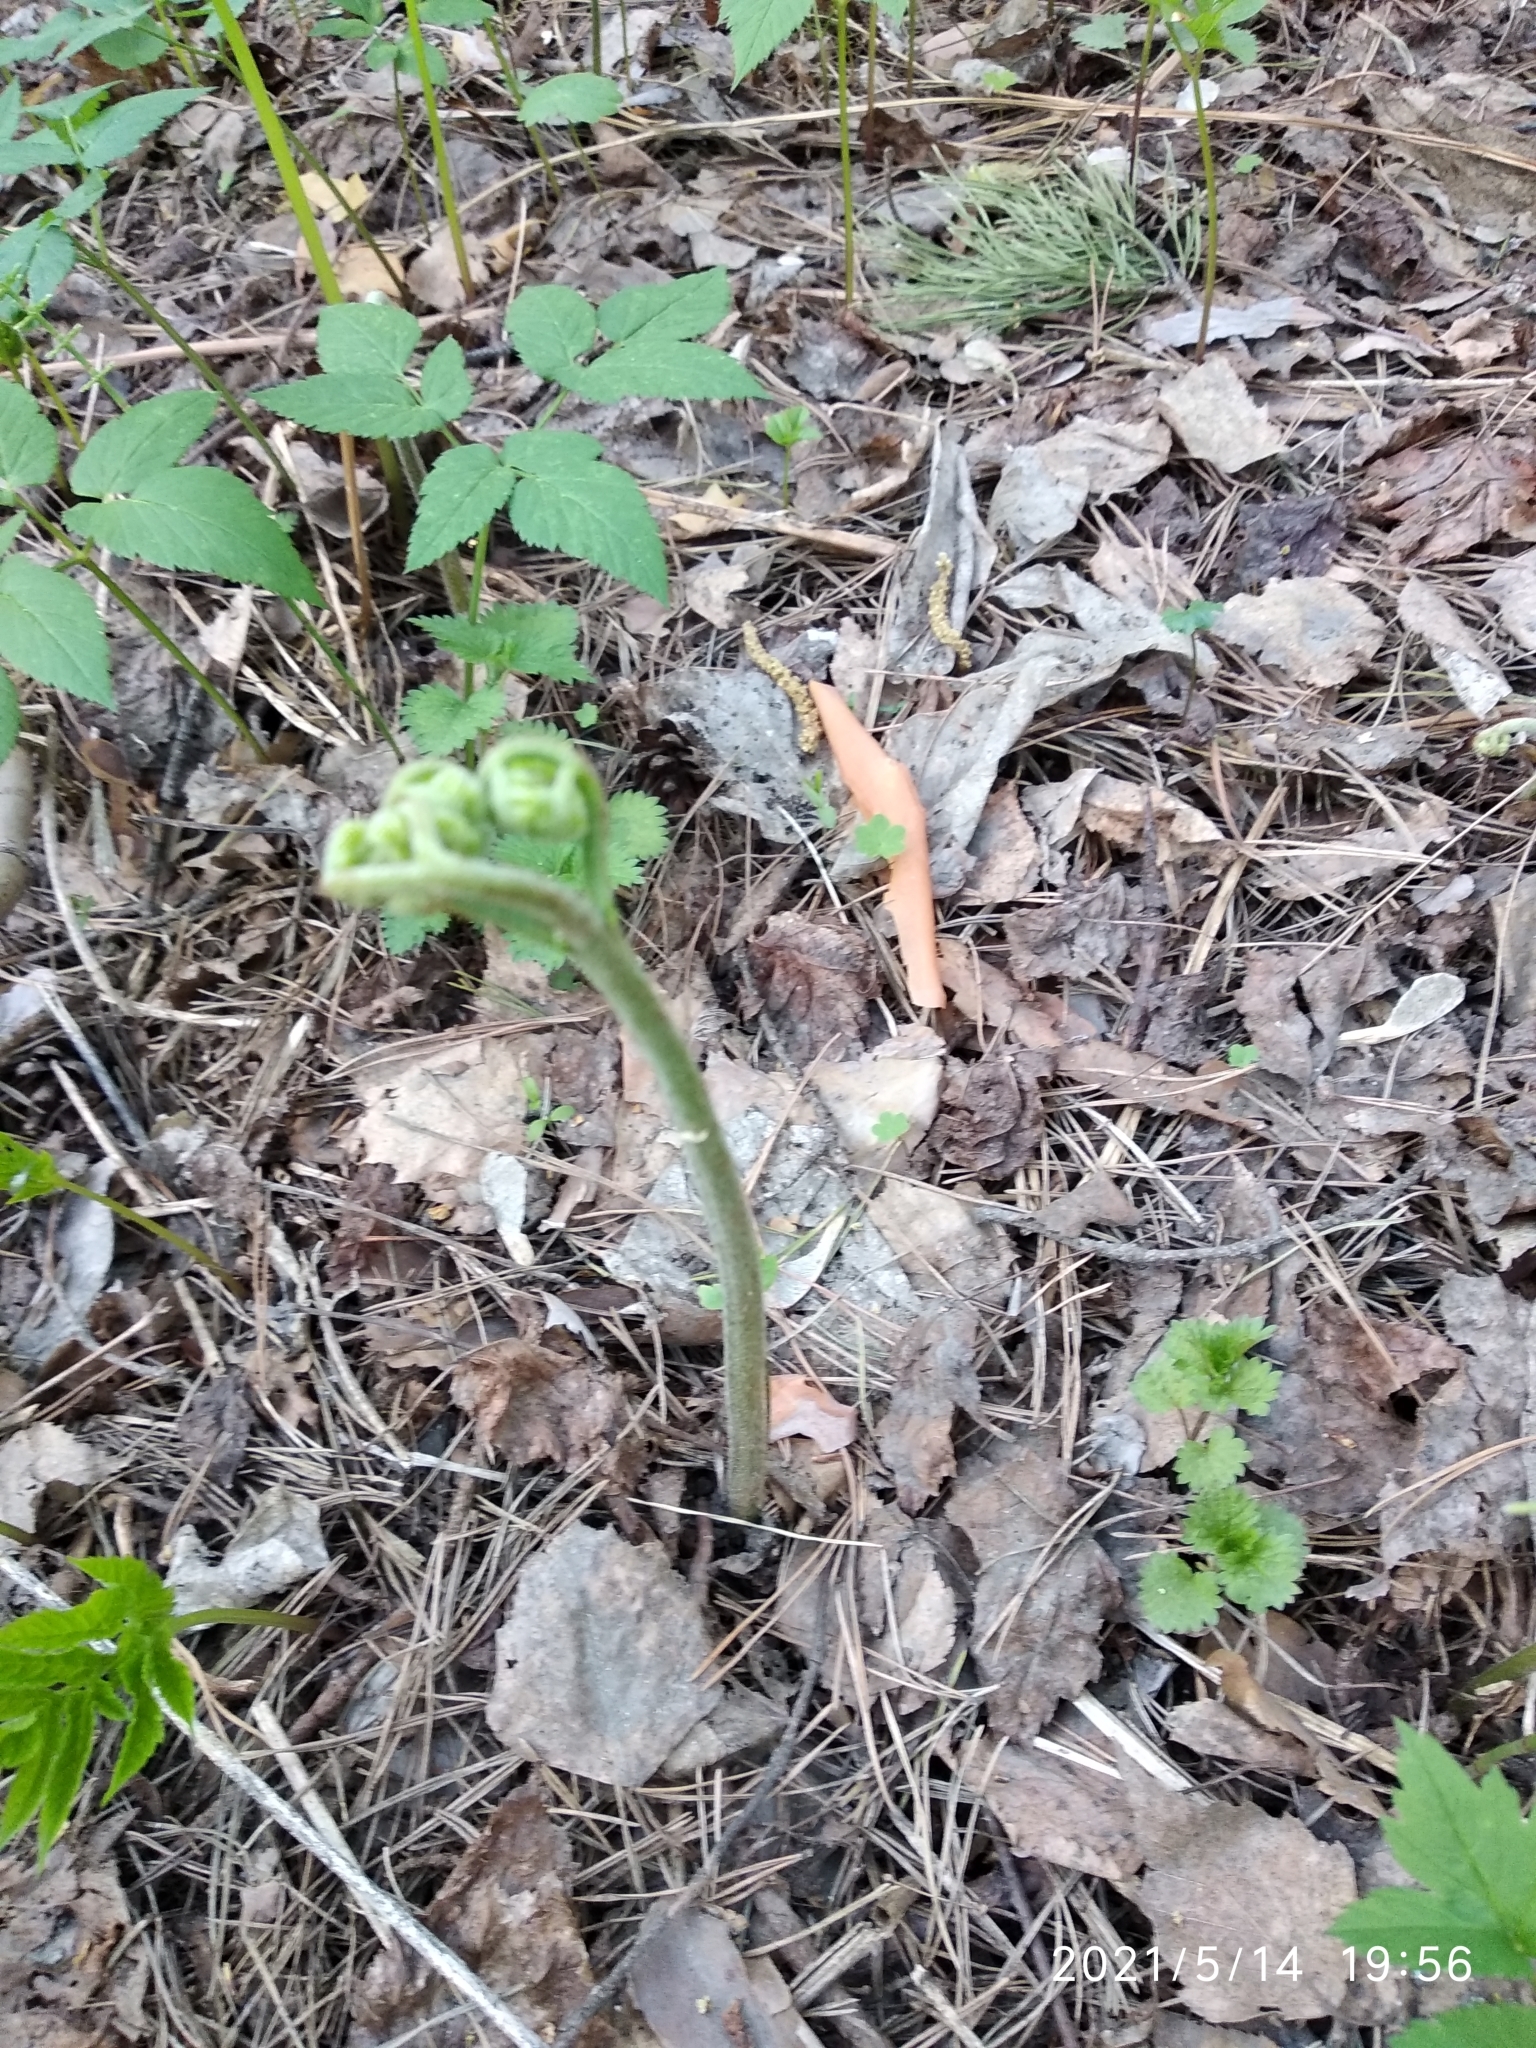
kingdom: Plantae
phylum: Tracheophyta
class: Polypodiopsida
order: Polypodiales
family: Dennstaedtiaceae
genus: Pteridium
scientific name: Pteridium aquilinum
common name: Bracken
